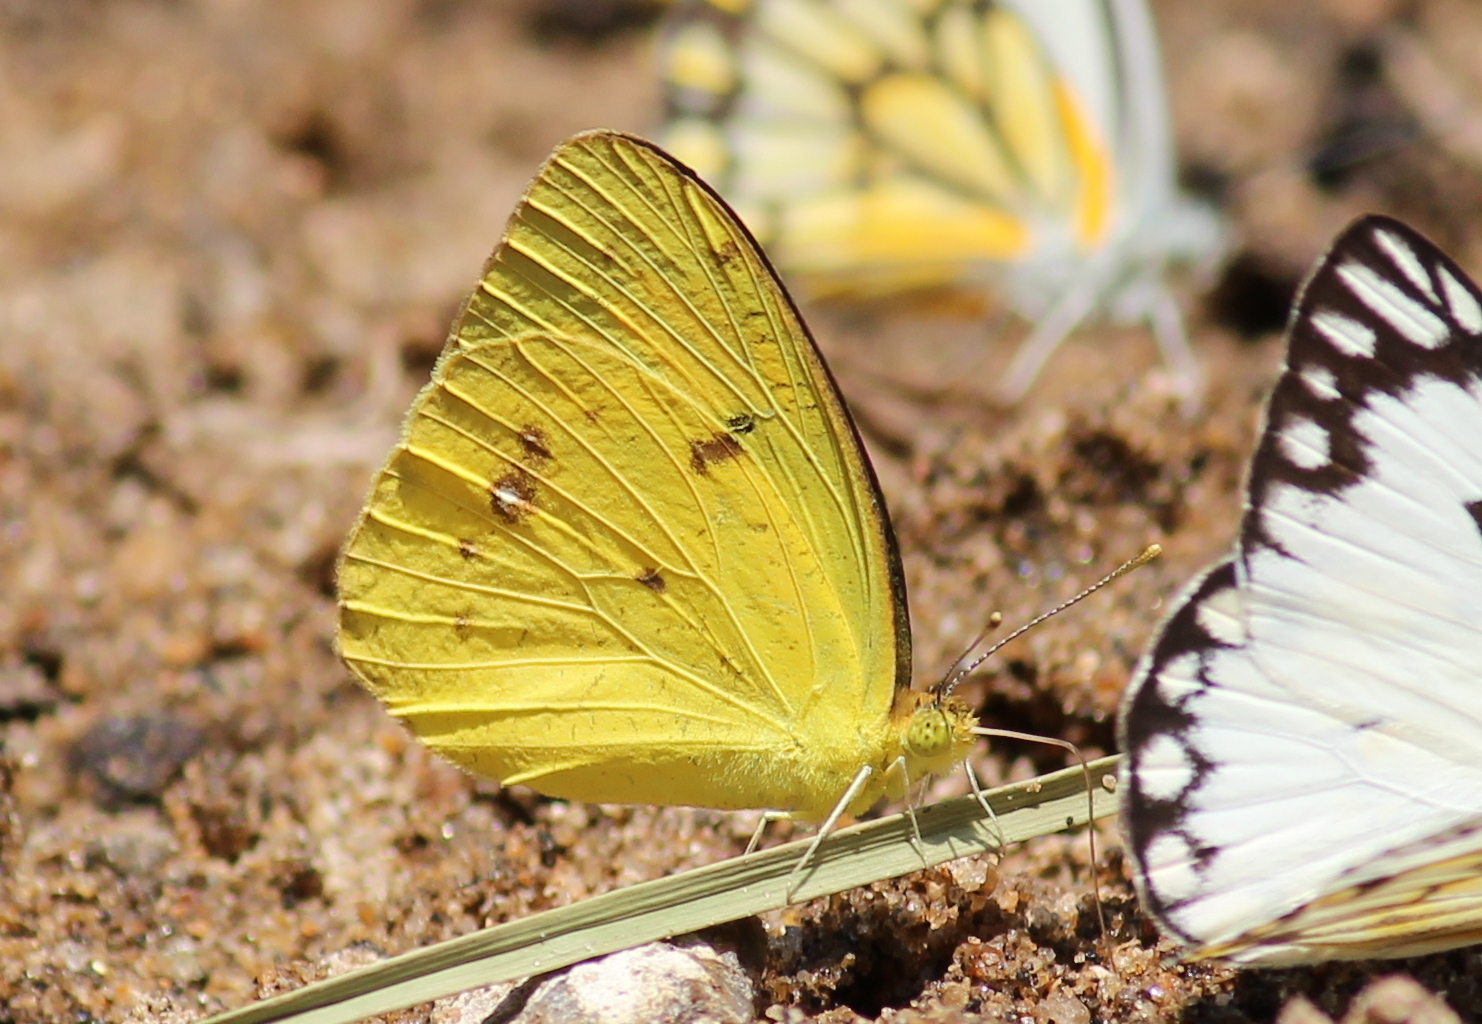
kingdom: Animalia
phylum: Arthropoda
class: Insecta
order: Lepidoptera
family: Pieridae
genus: Ixias
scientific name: Ixias pyrene
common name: Yellow orange tip
